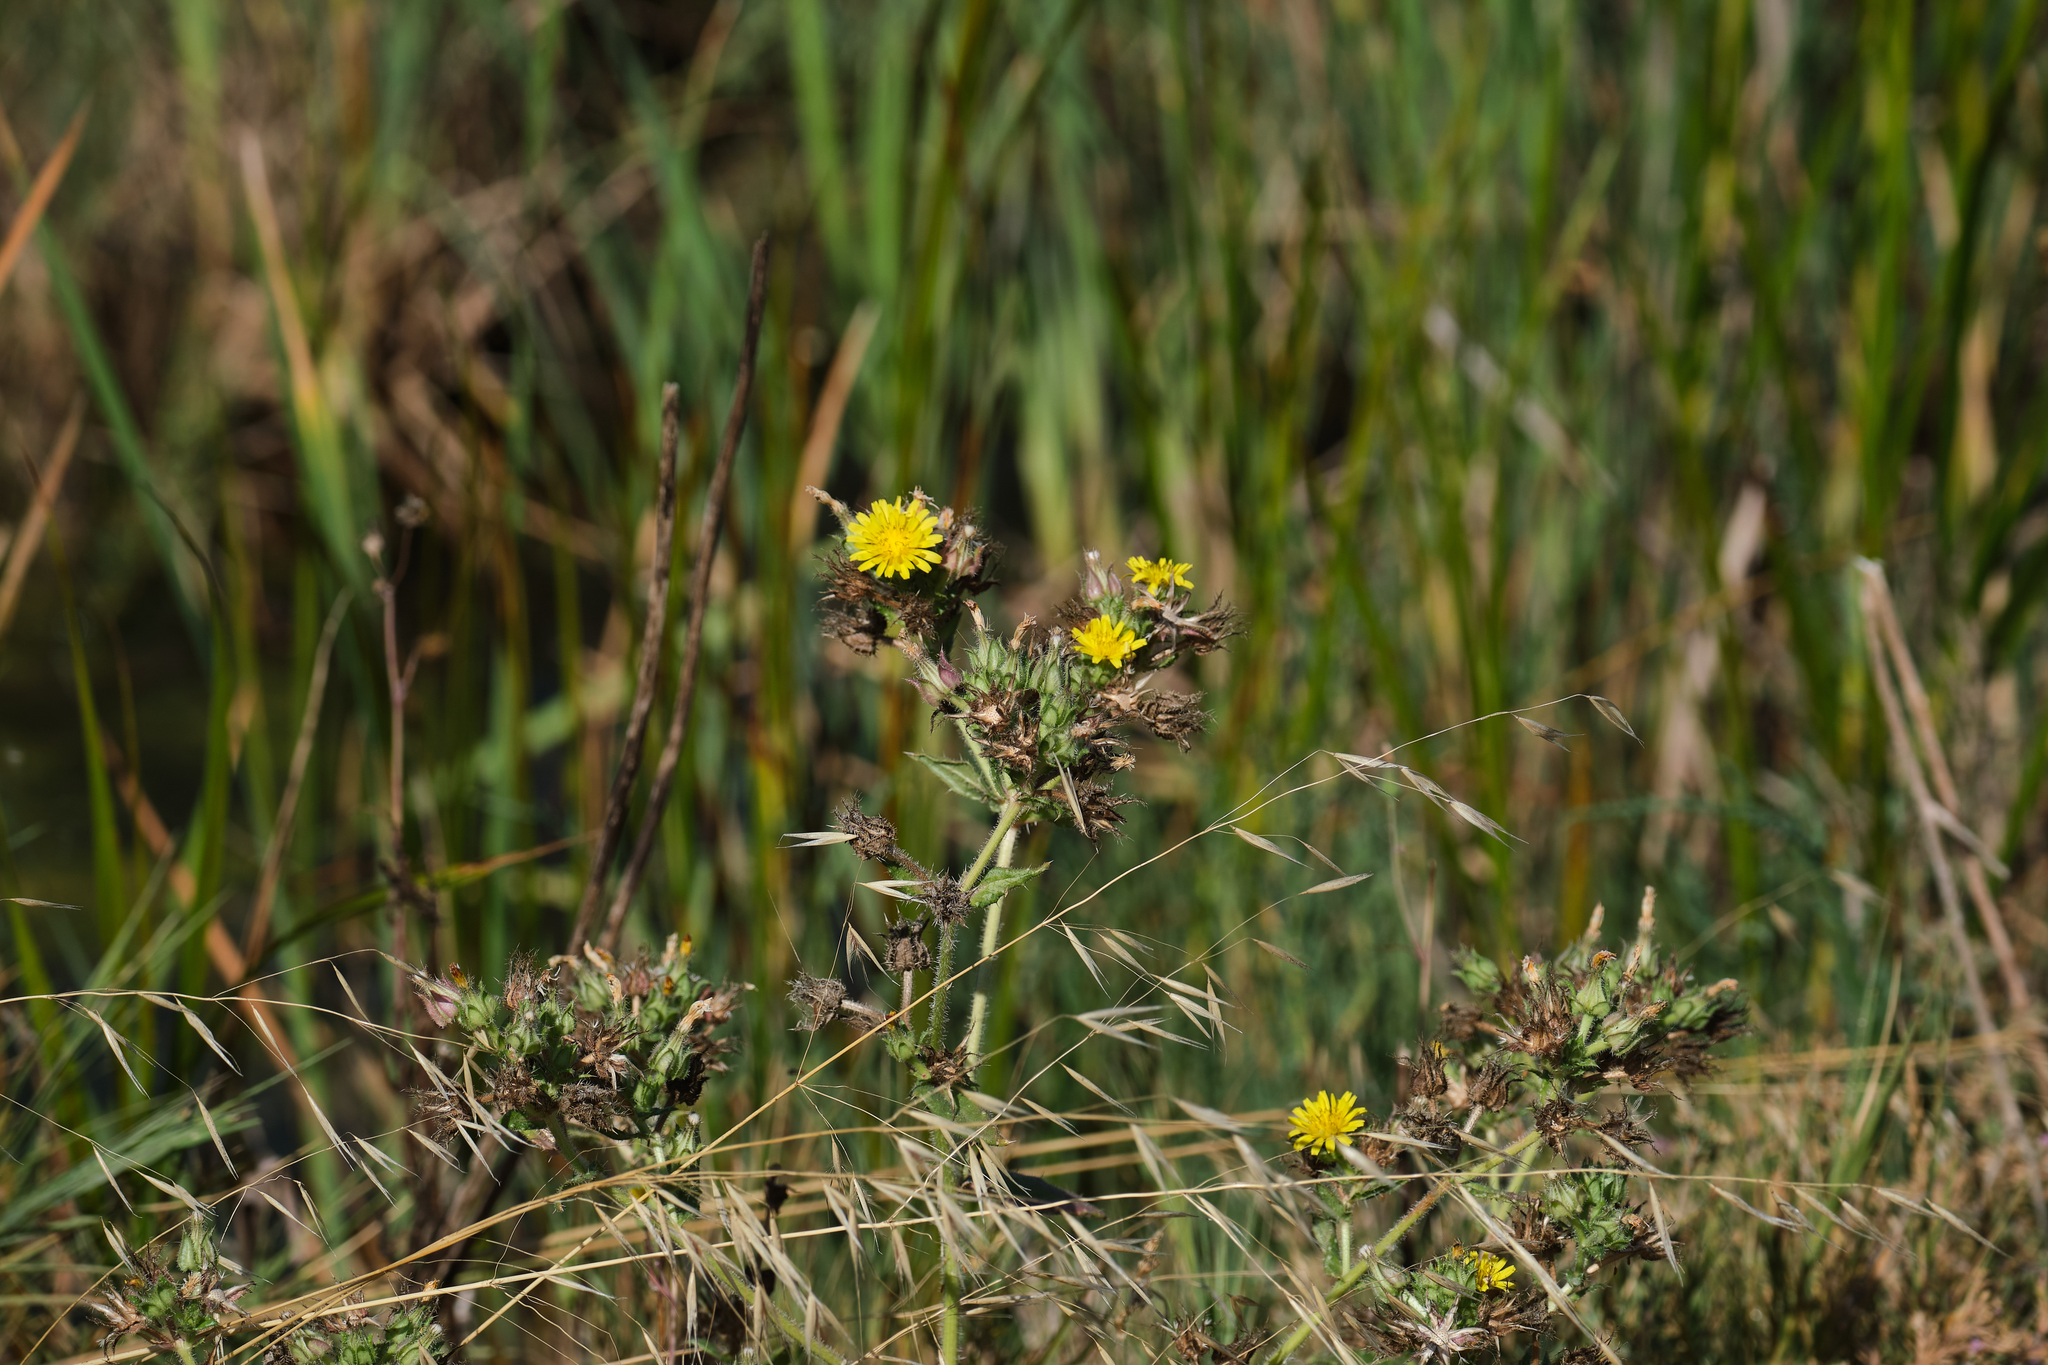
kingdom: Plantae
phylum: Tracheophyta
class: Magnoliopsida
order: Asterales
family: Asteraceae
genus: Helminthotheca
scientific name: Helminthotheca echioides
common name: Ox-tongue
